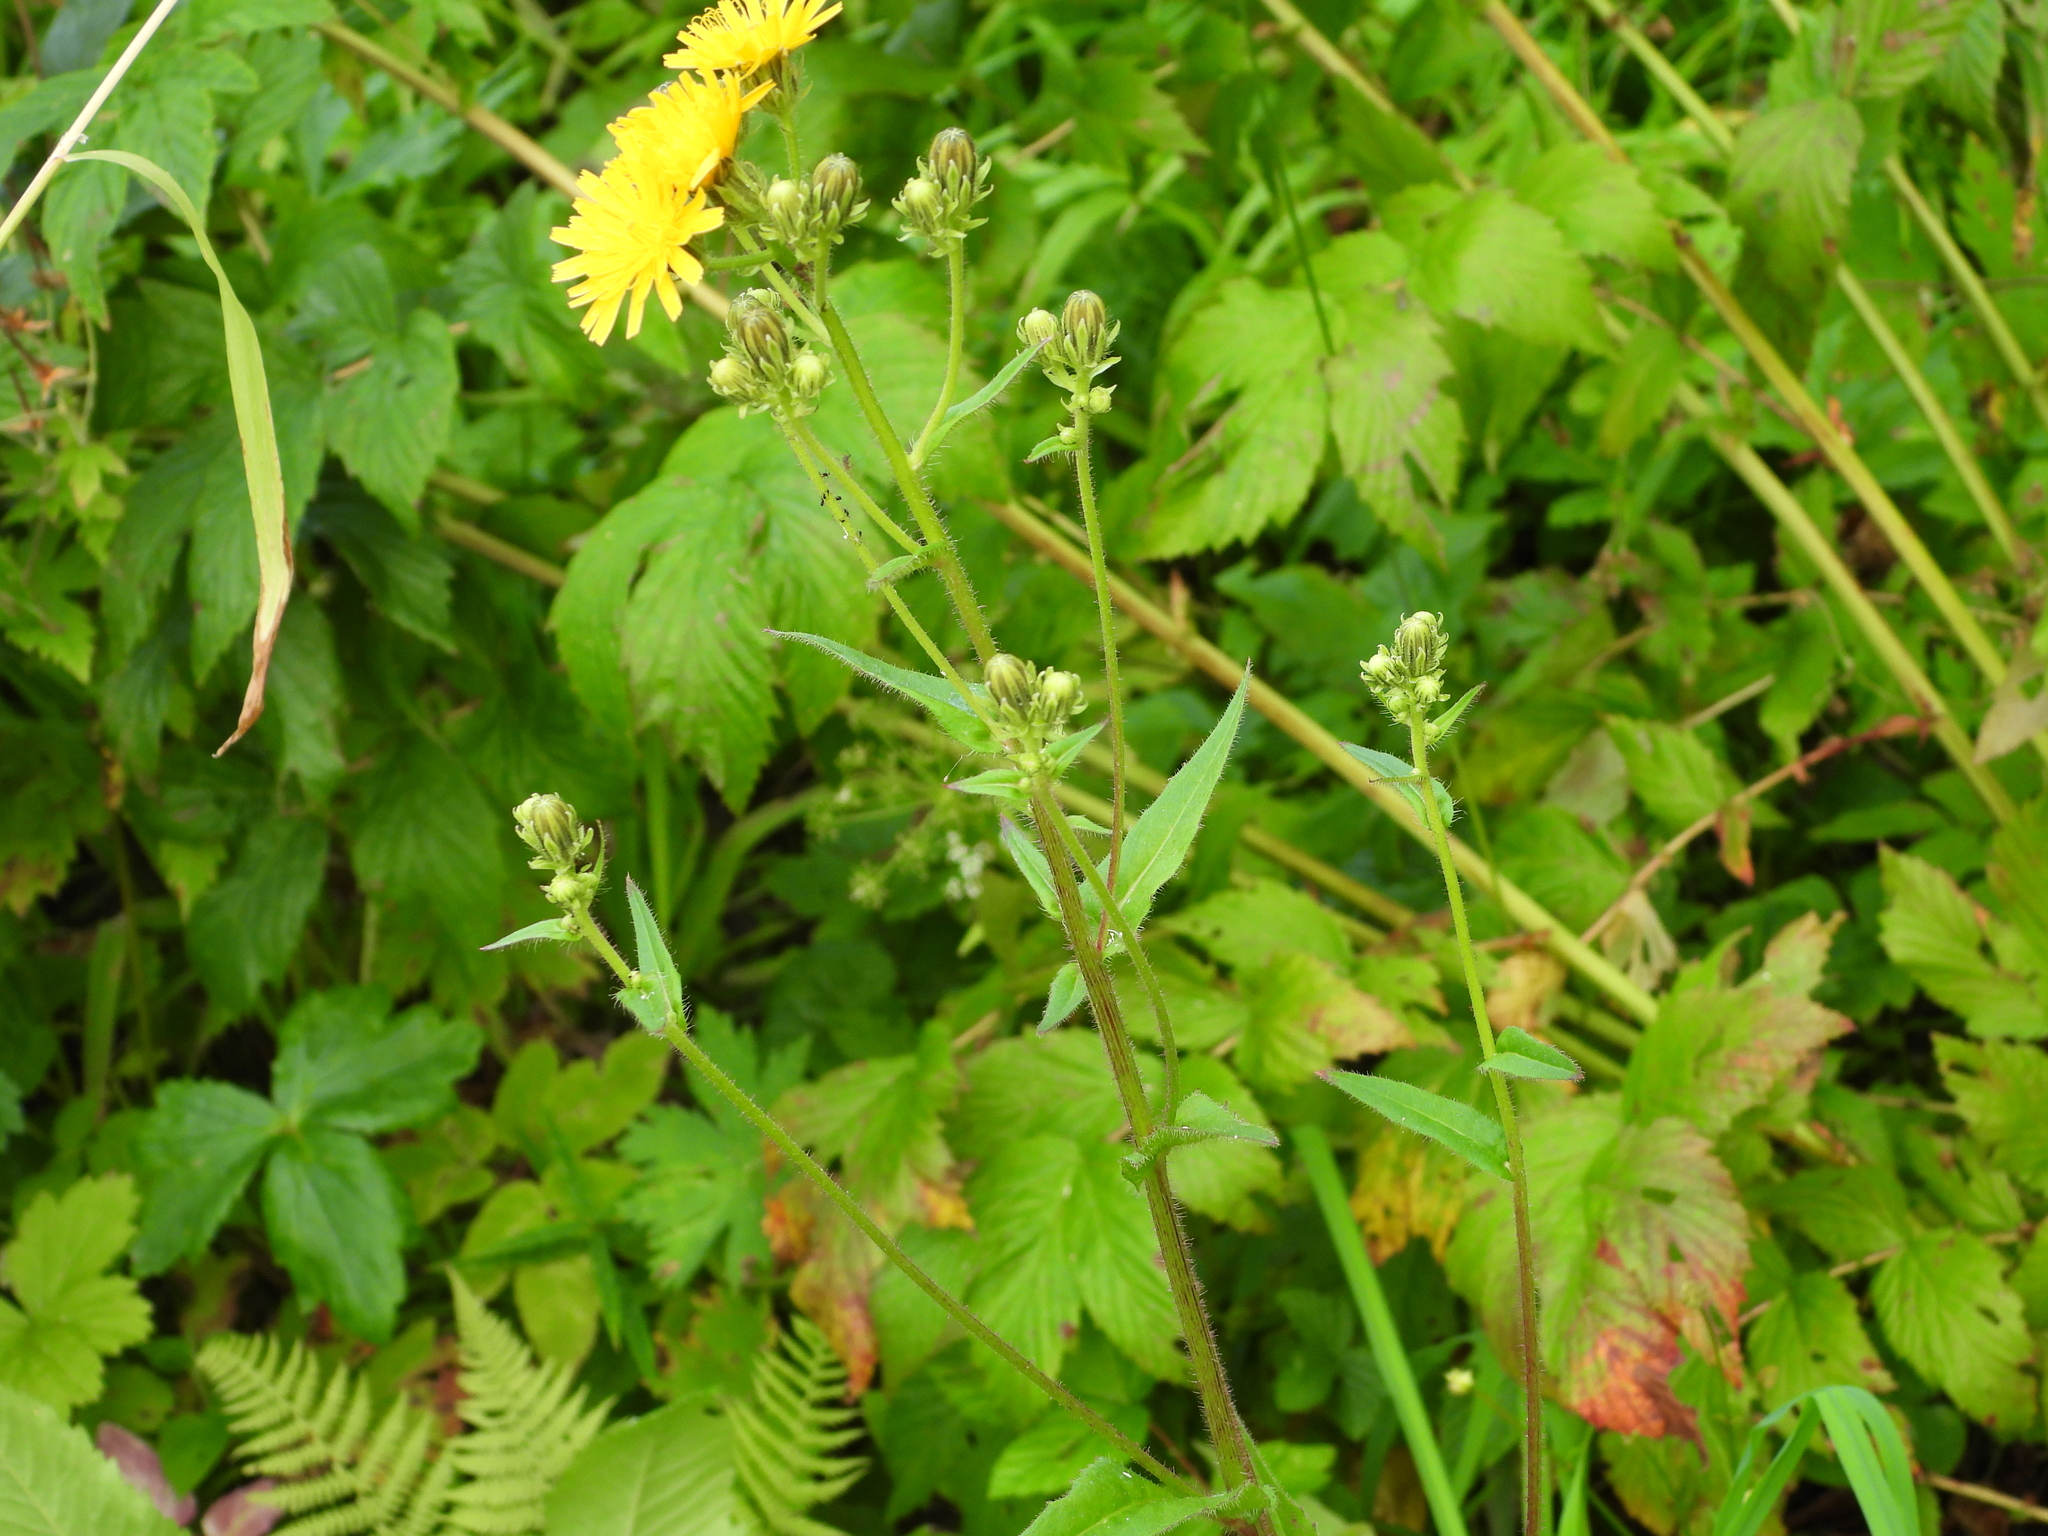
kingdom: Plantae
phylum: Tracheophyta
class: Magnoliopsida
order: Asterales
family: Asteraceae
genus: Picris
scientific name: Picris hieracioides
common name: Hawkweed oxtongue
